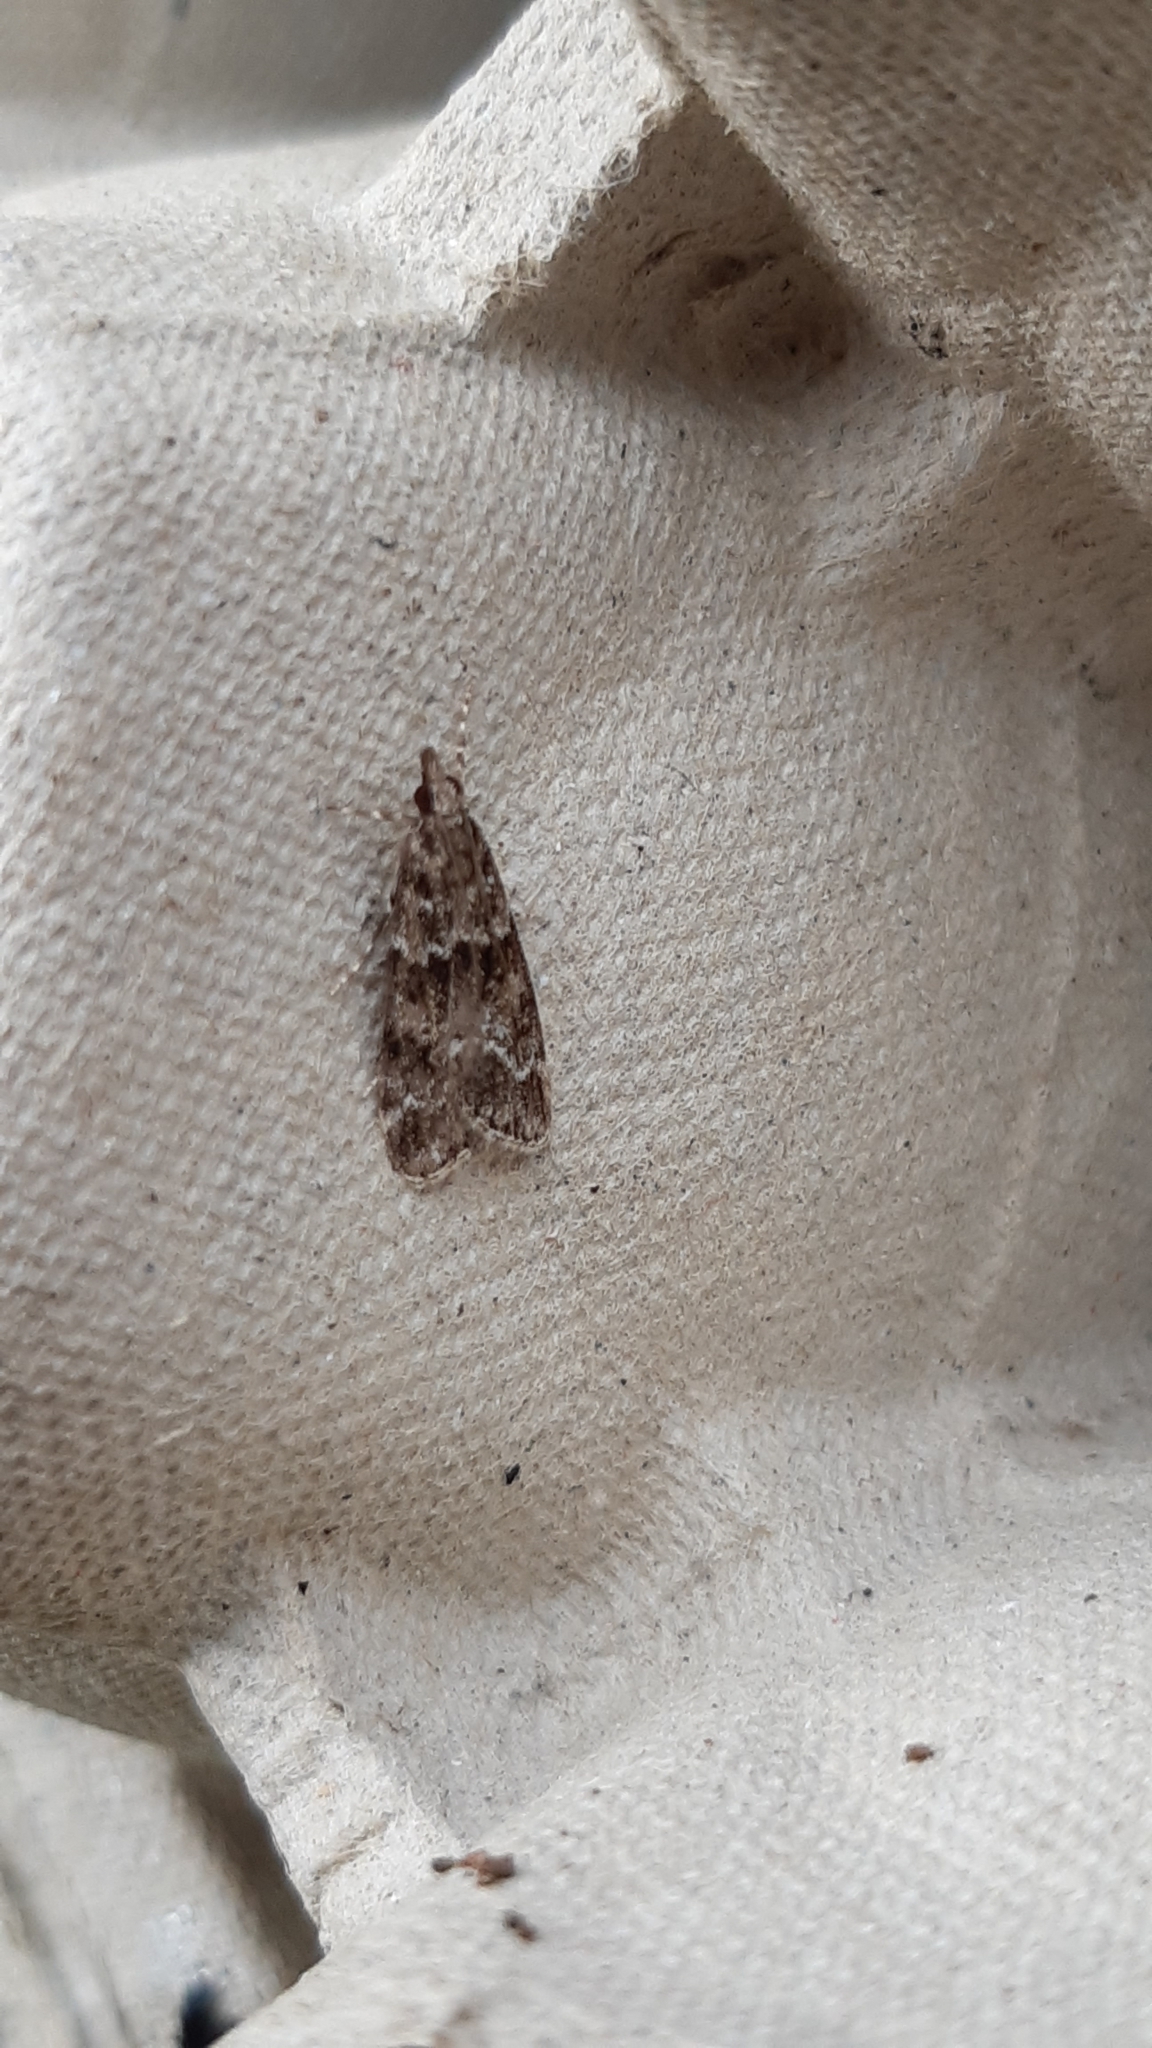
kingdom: Animalia
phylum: Arthropoda
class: Insecta
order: Lepidoptera
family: Crambidae
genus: Eudonia
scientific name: Eudonia mercurella
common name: Small grey
